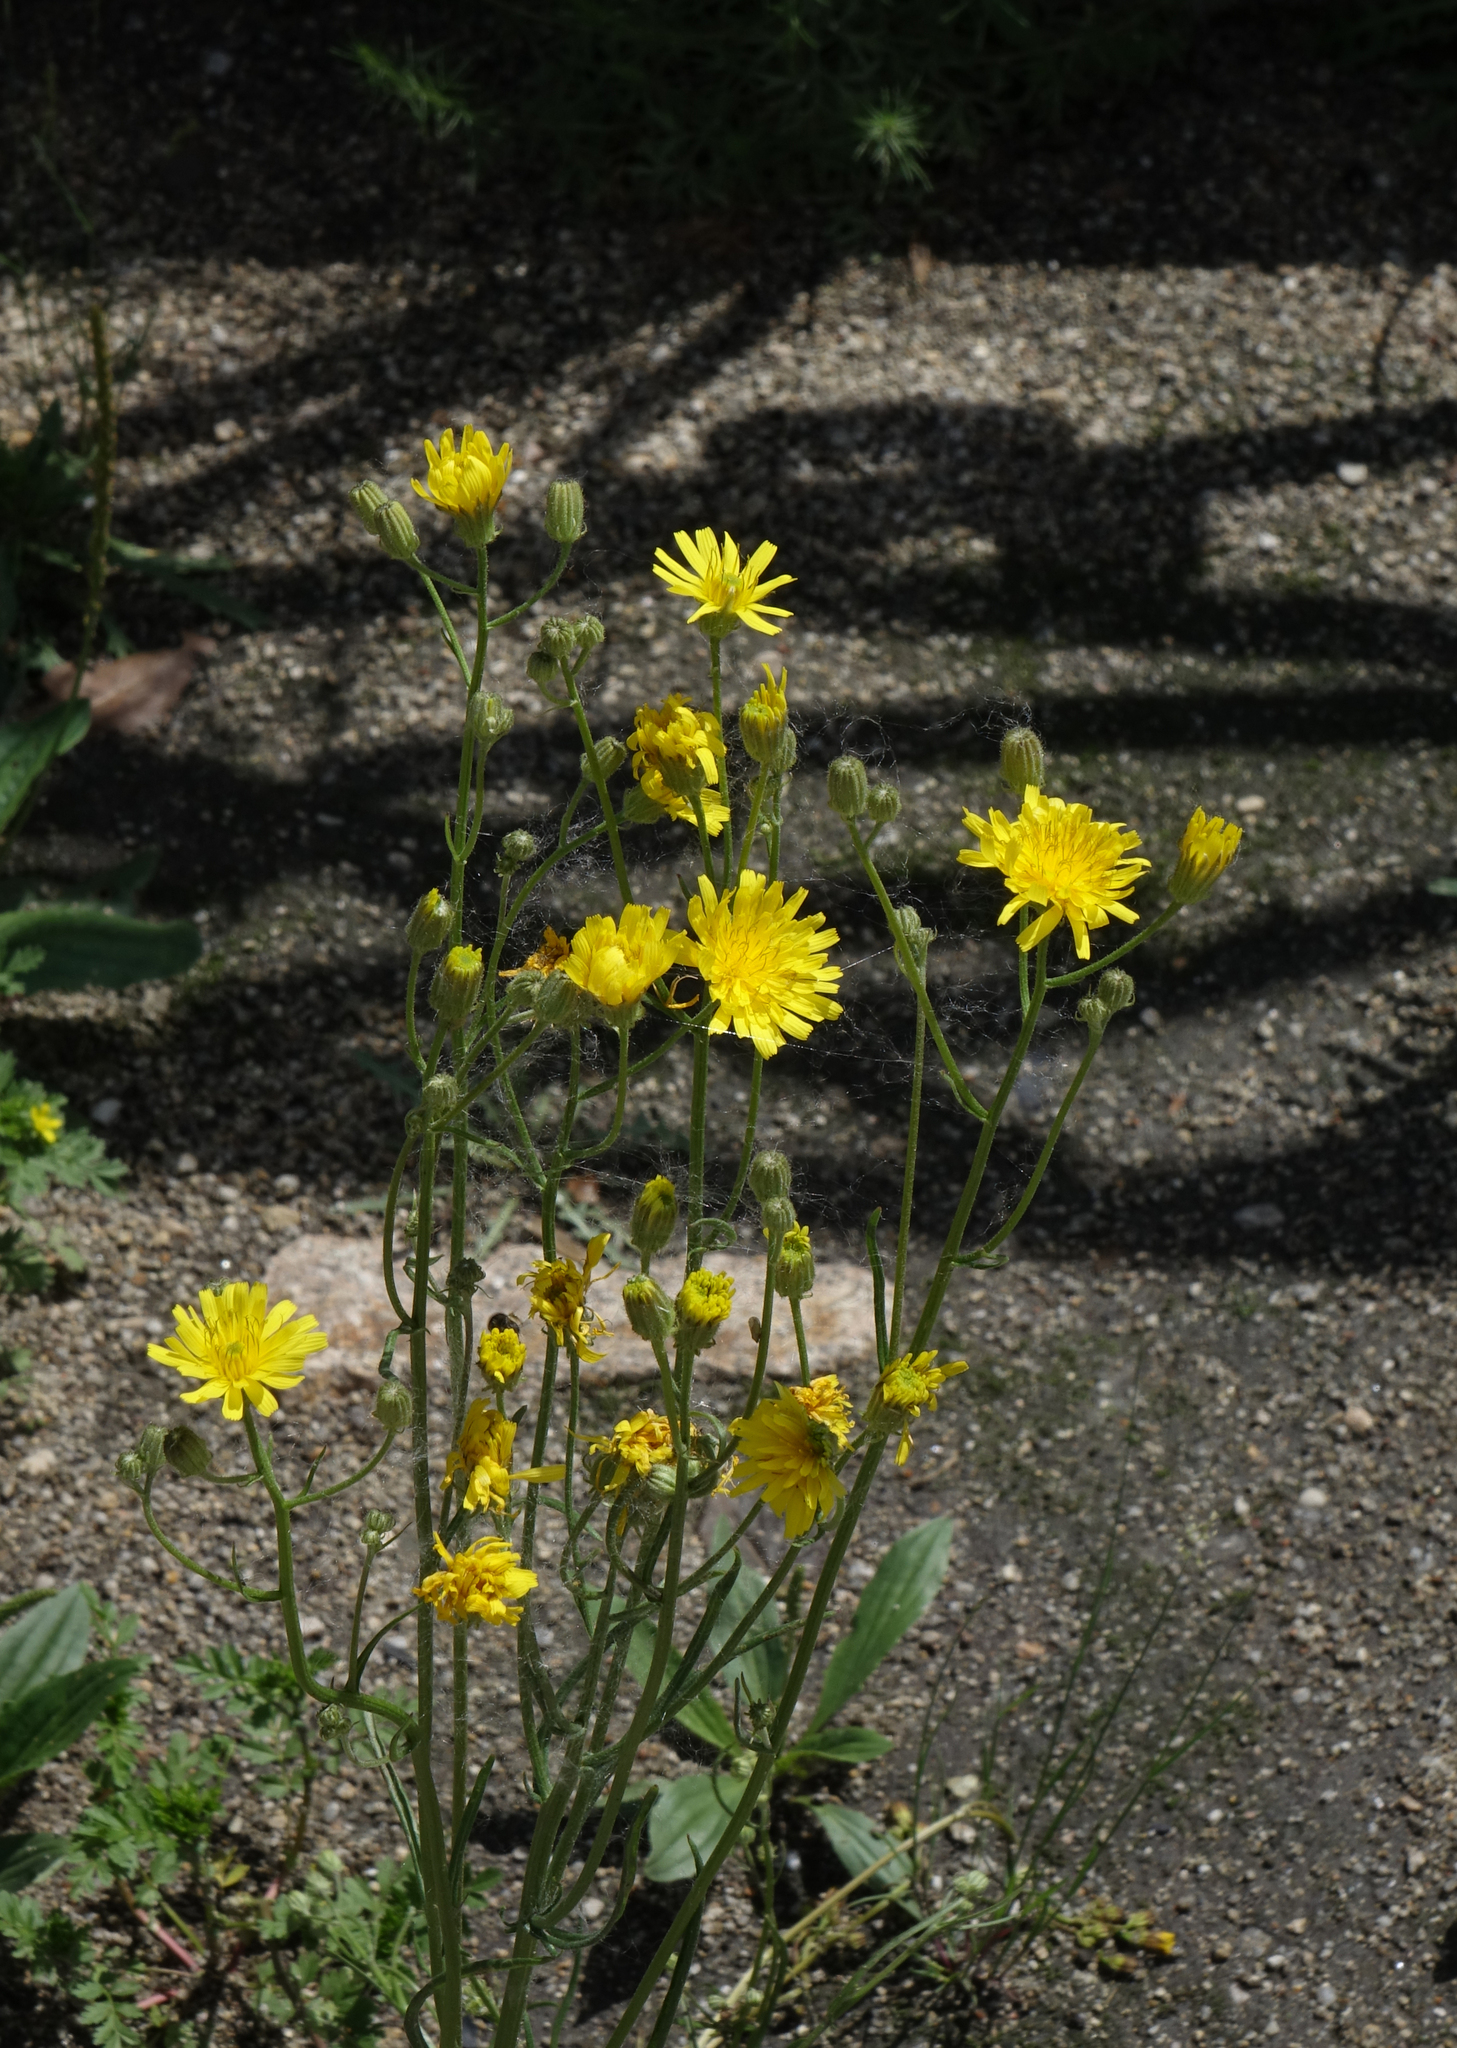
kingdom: Plantae
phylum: Tracheophyta
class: Magnoliopsida
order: Asterales
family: Asteraceae
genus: Crepis
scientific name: Crepis tectorum
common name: Narrow-leaved hawk's-beard
